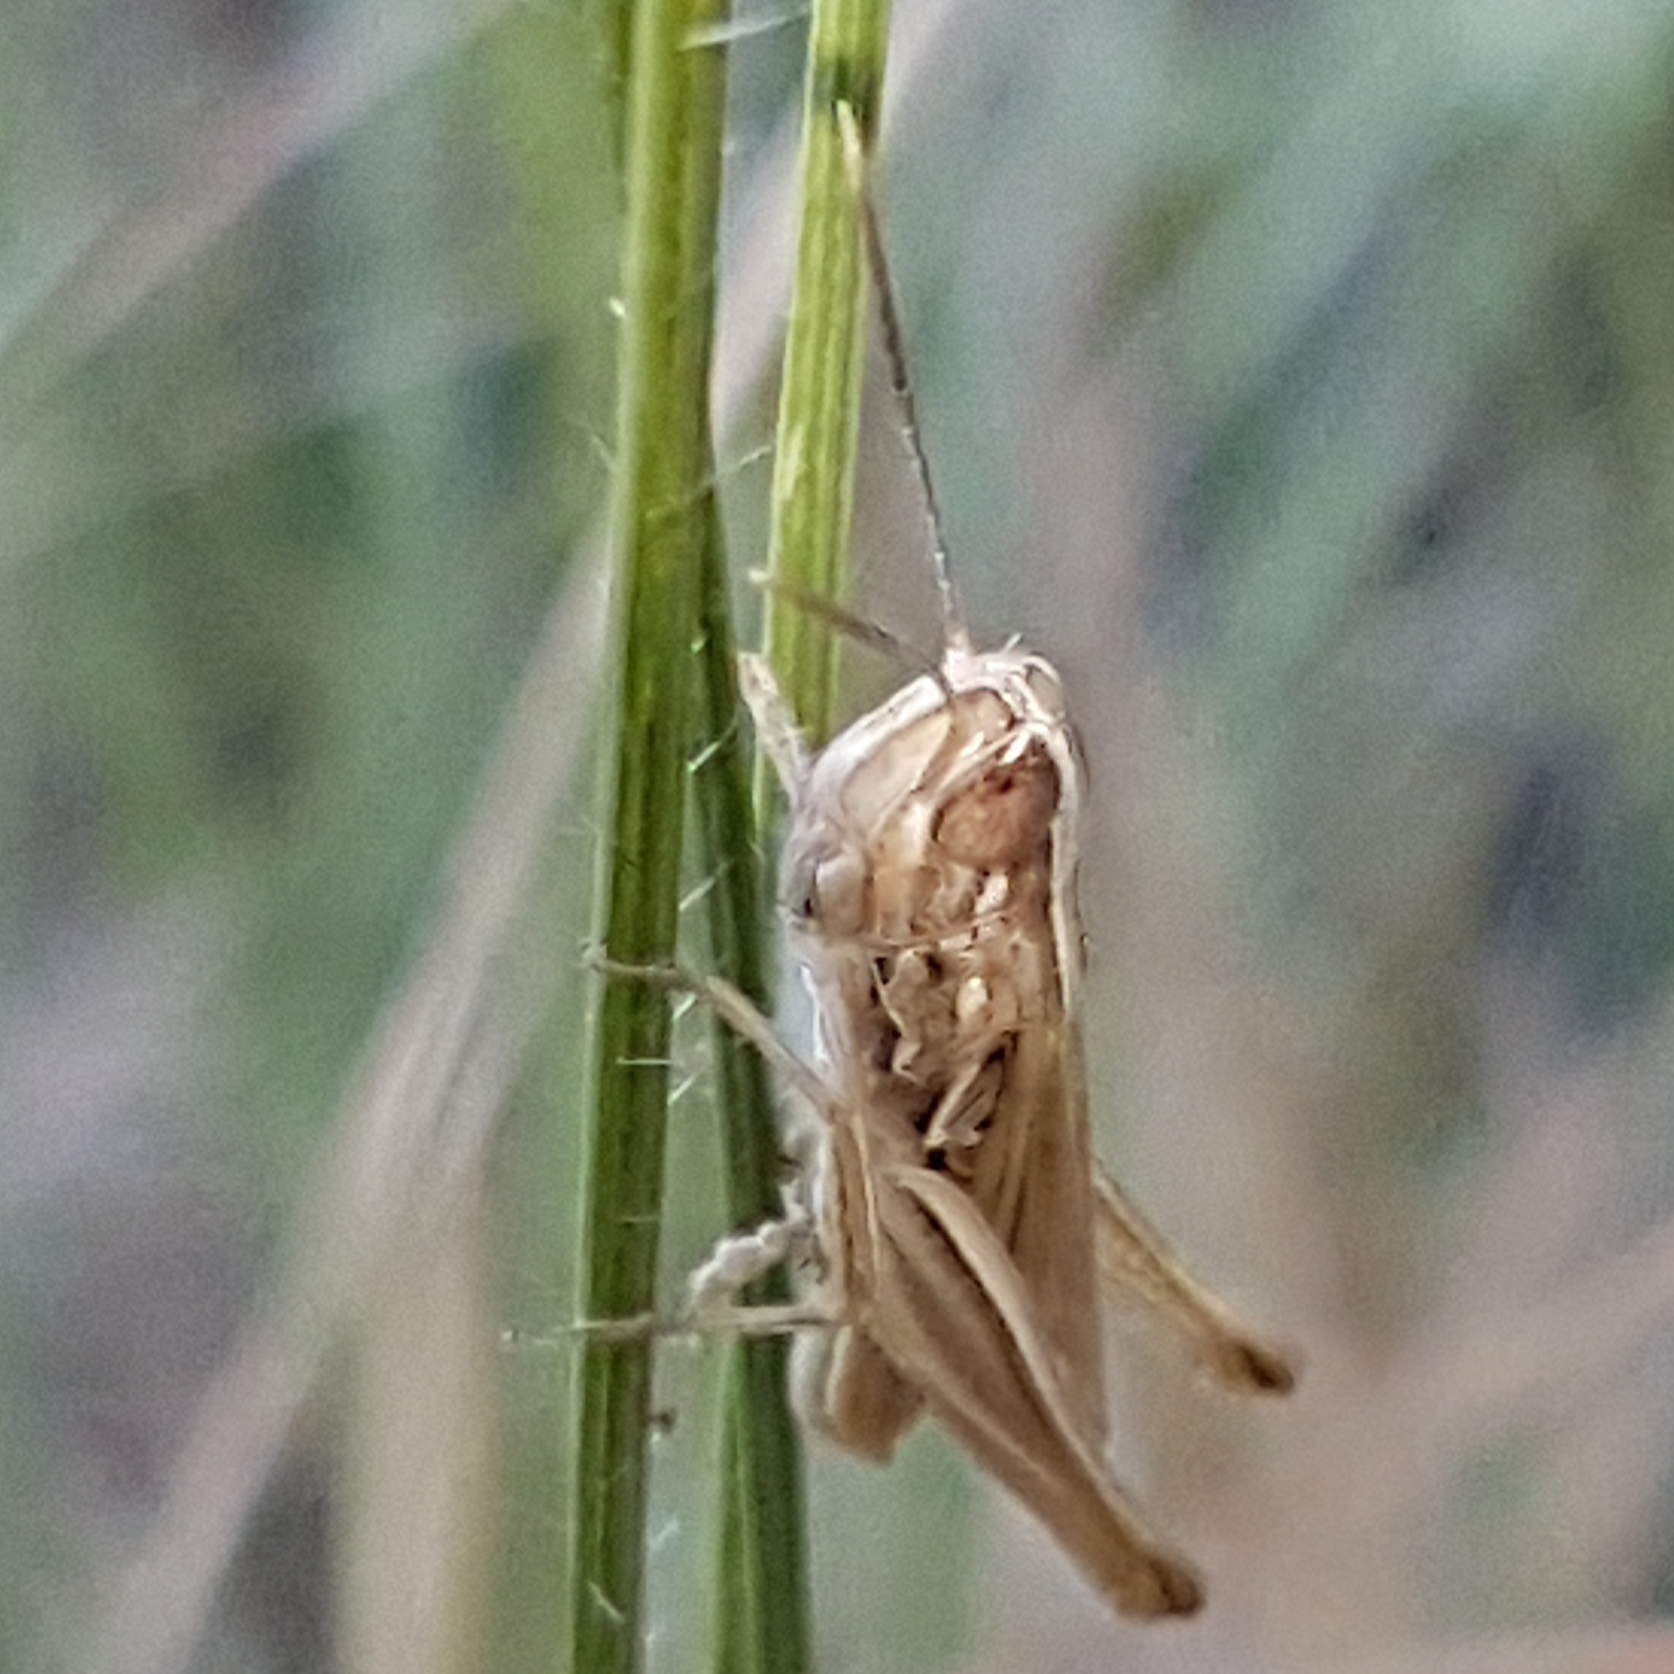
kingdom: Animalia
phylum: Arthropoda
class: Insecta
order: Orthoptera
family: Acrididae
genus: Euchorthippus
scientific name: Euchorthippus elegantulus
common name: Elegant straw grasshopper
